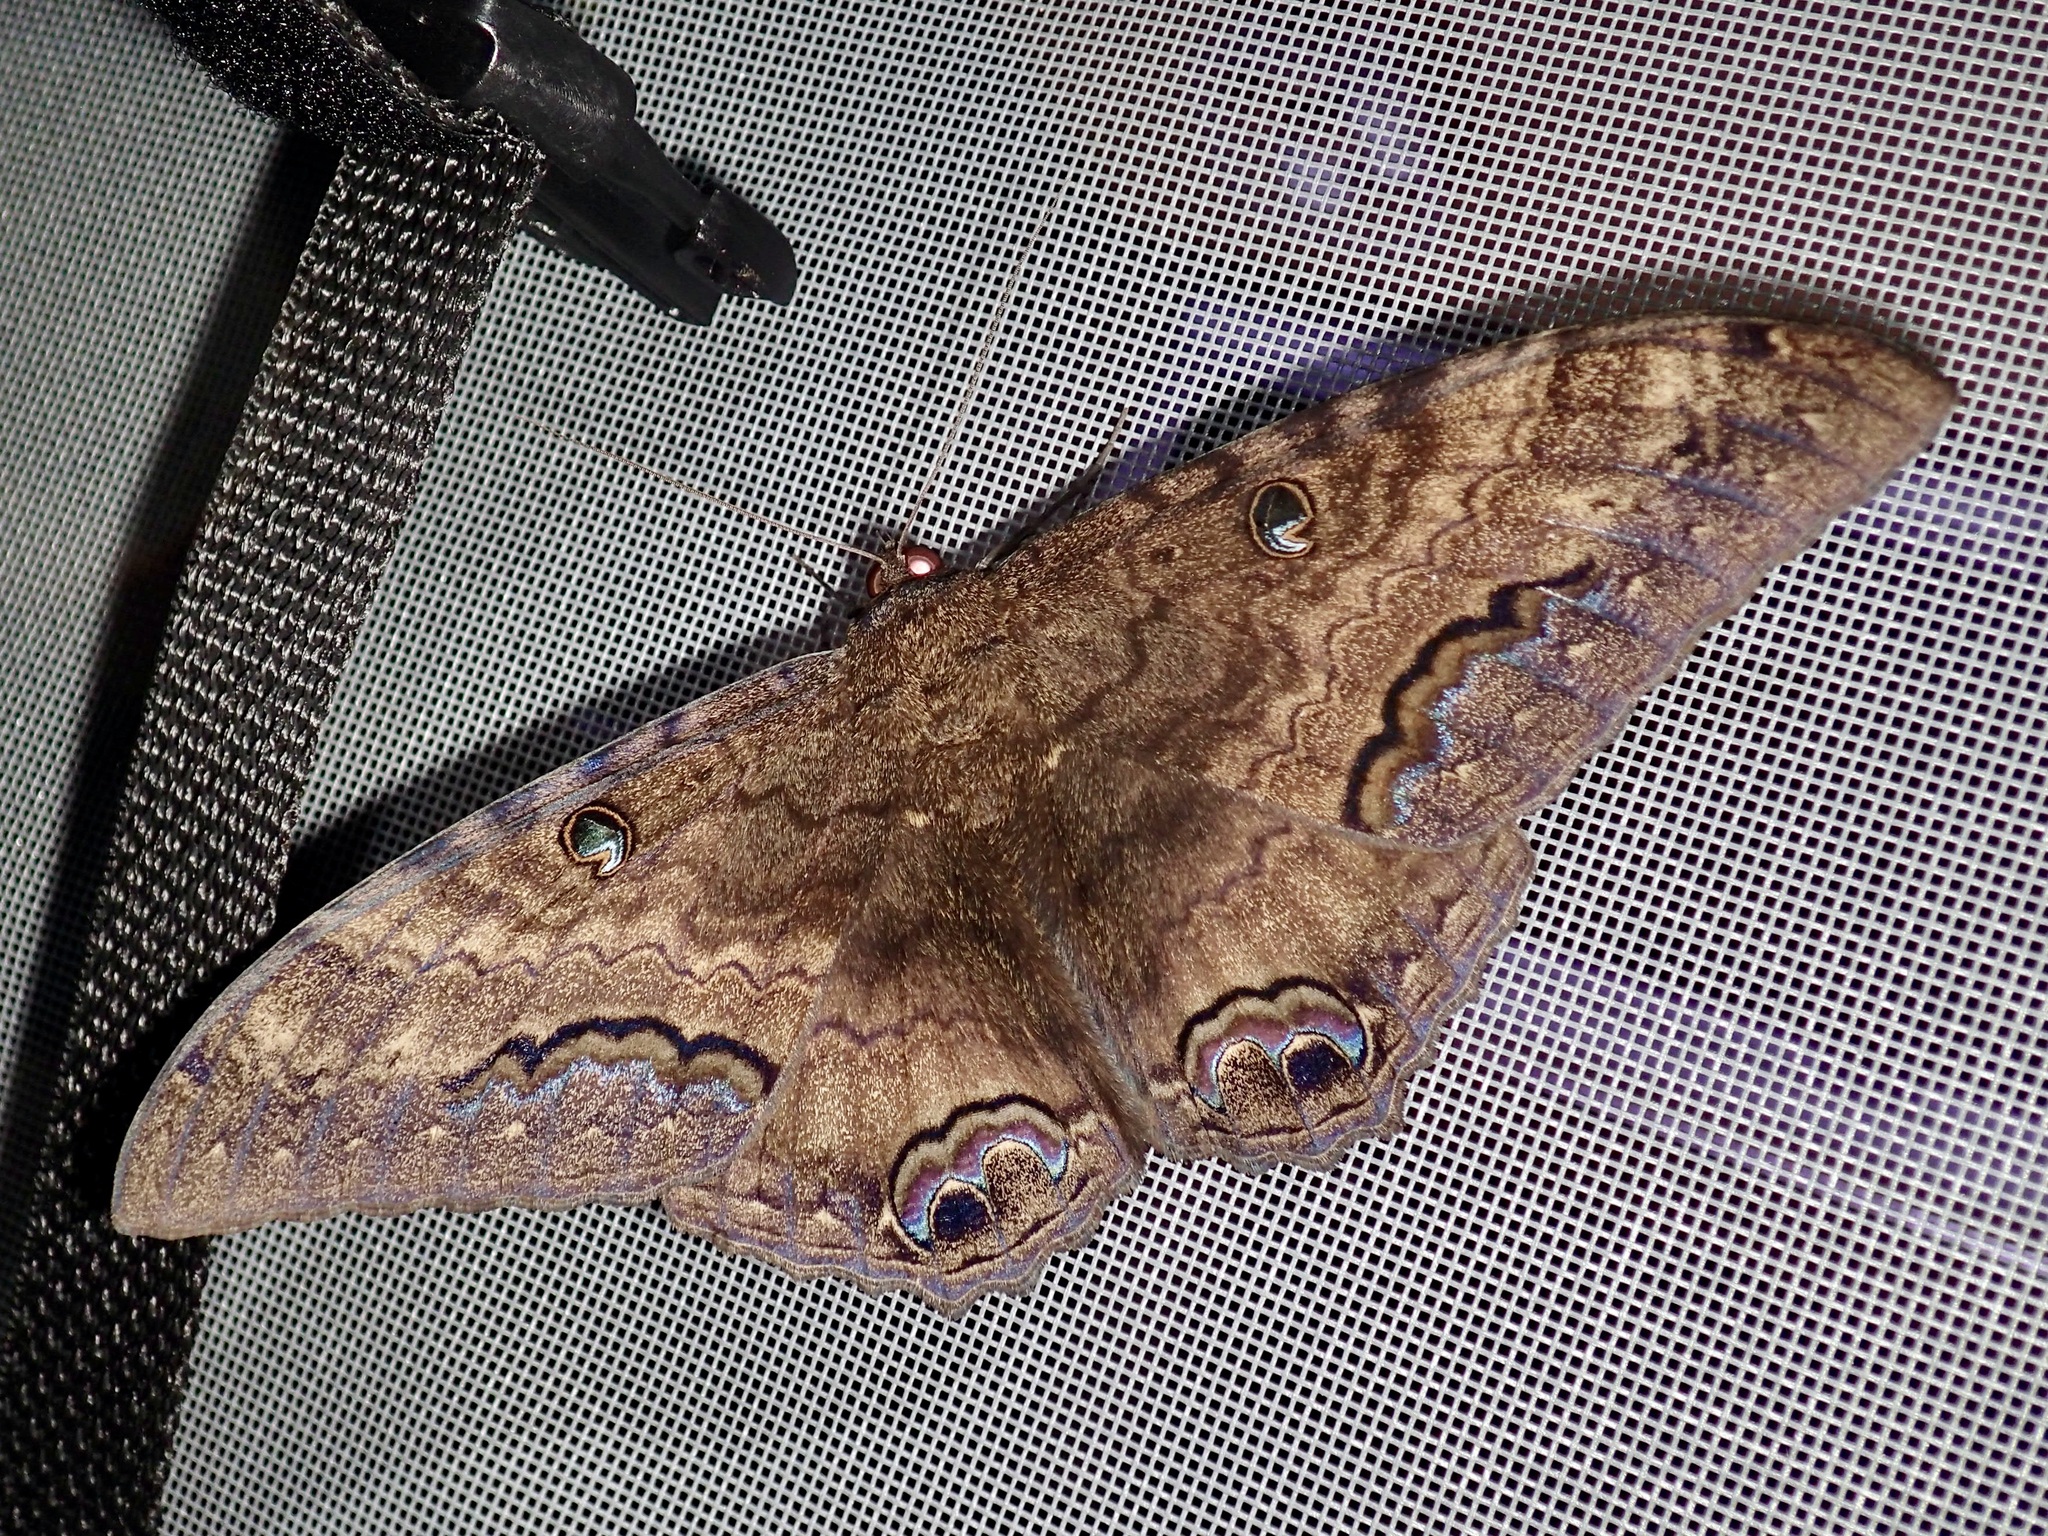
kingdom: Animalia
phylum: Arthropoda
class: Insecta
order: Lepidoptera
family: Erebidae
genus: Ascalapha
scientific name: Ascalapha odorata
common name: Black witch
